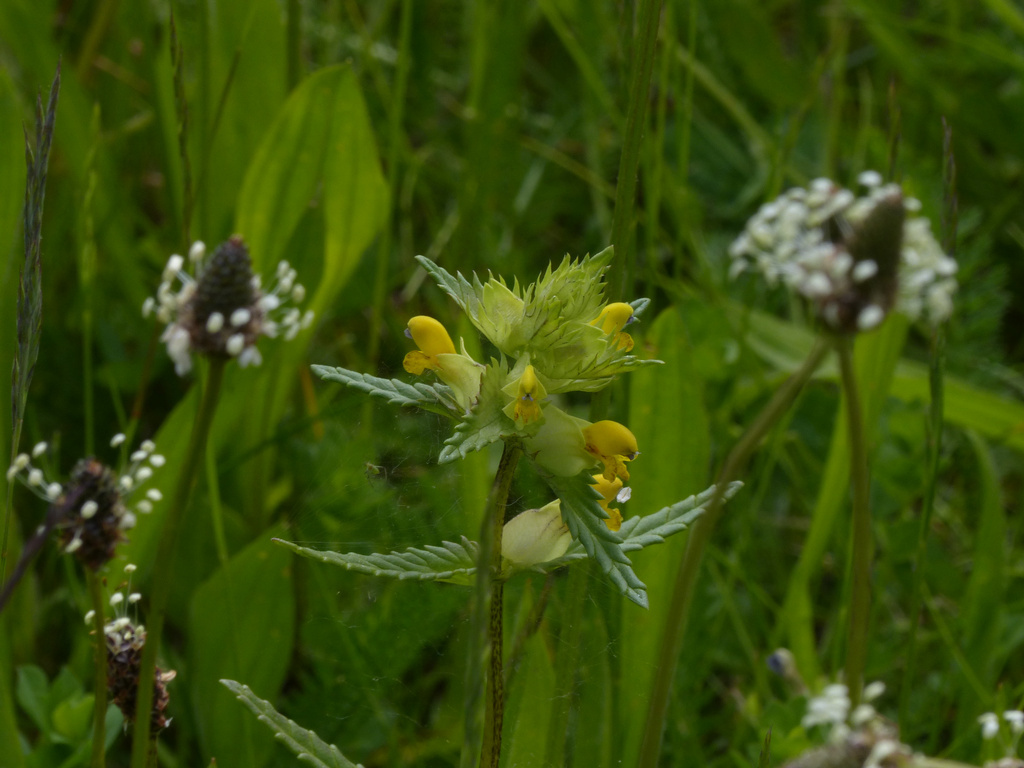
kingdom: Plantae
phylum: Tracheophyta
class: Magnoliopsida
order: Lamiales
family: Orobanchaceae
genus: Rhinanthus
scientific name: Rhinanthus minor
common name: Yellow-rattle
